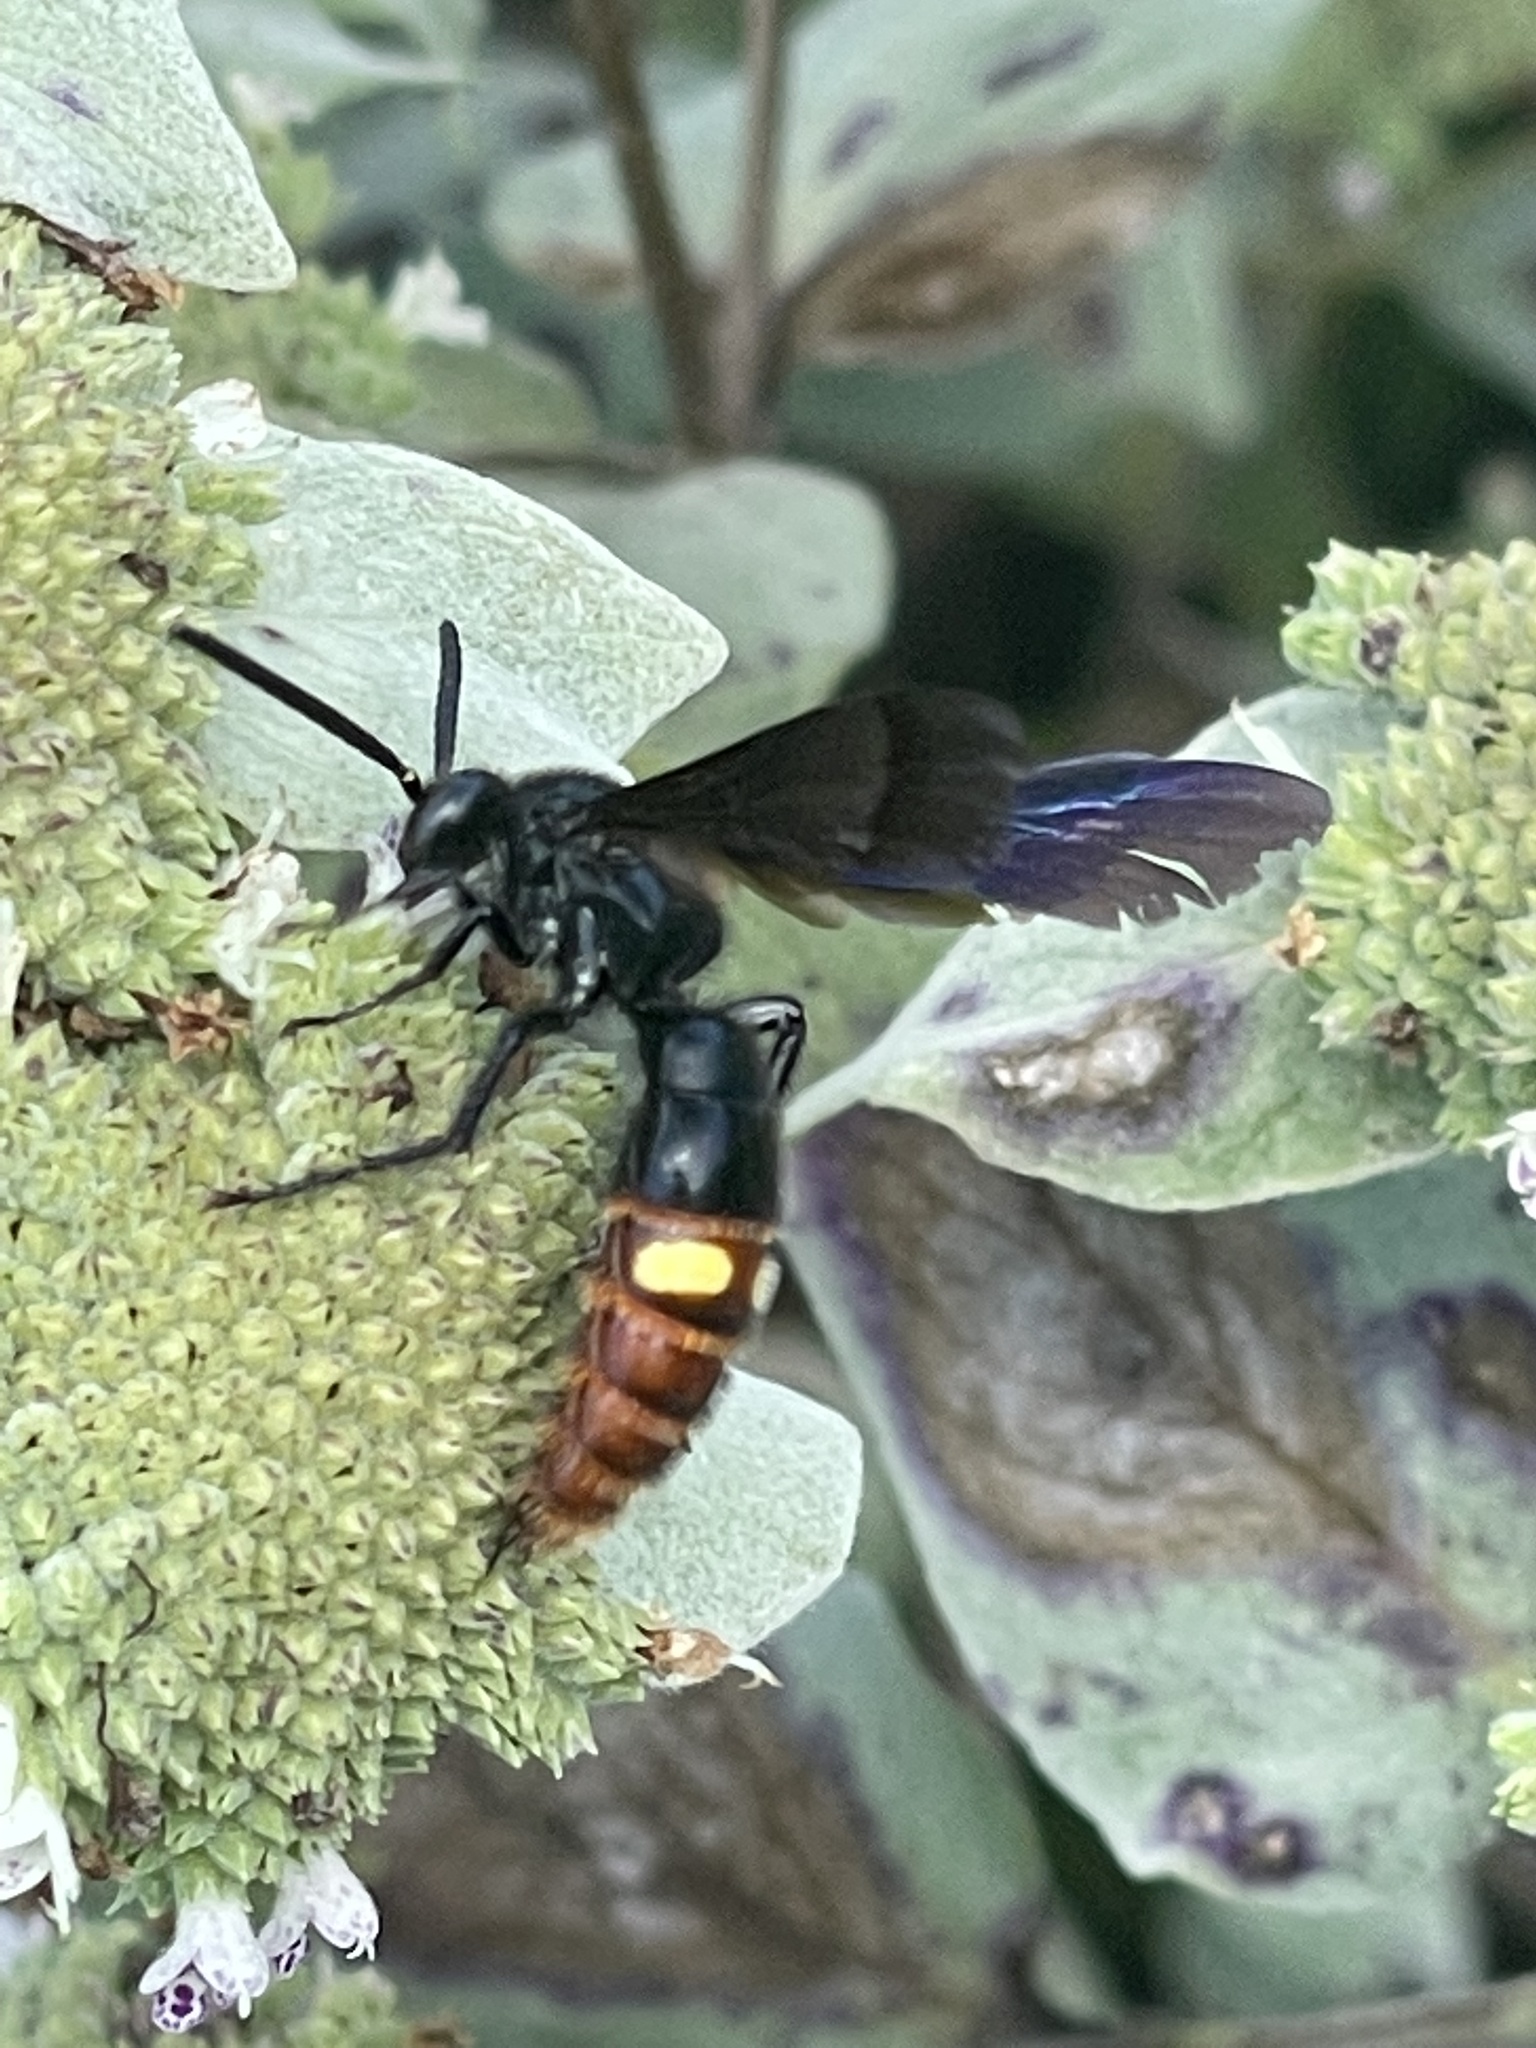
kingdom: Animalia
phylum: Arthropoda
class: Insecta
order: Hymenoptera
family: Scoliidae
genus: Scolia
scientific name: Scolia dubia
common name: Blue-winged scoliid wasp
